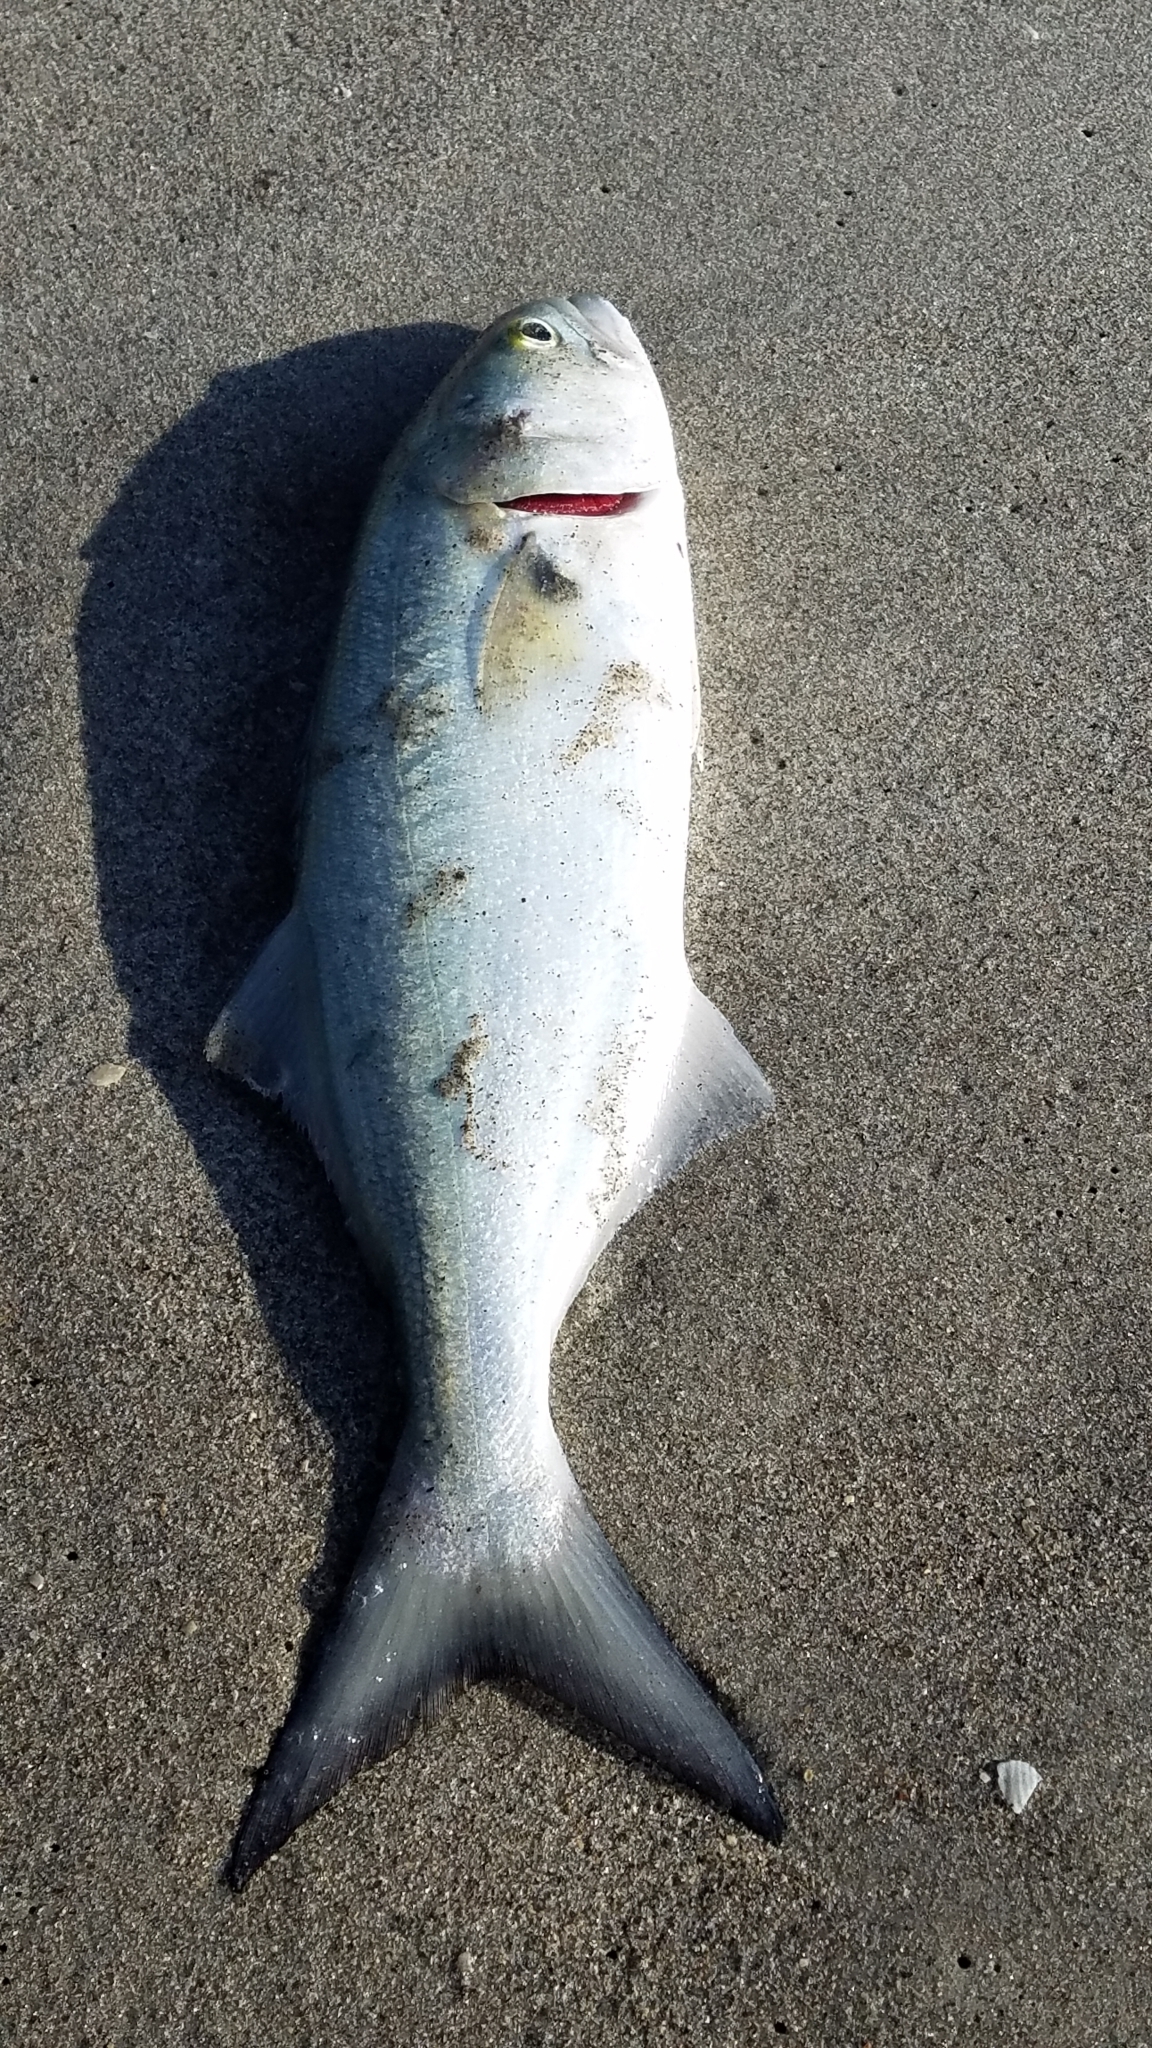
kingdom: Animalia
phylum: Chordata
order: Perciformes
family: Pomatomidae
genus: Pomatomus
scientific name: Pomatomus saltatrix
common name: Bluefish
